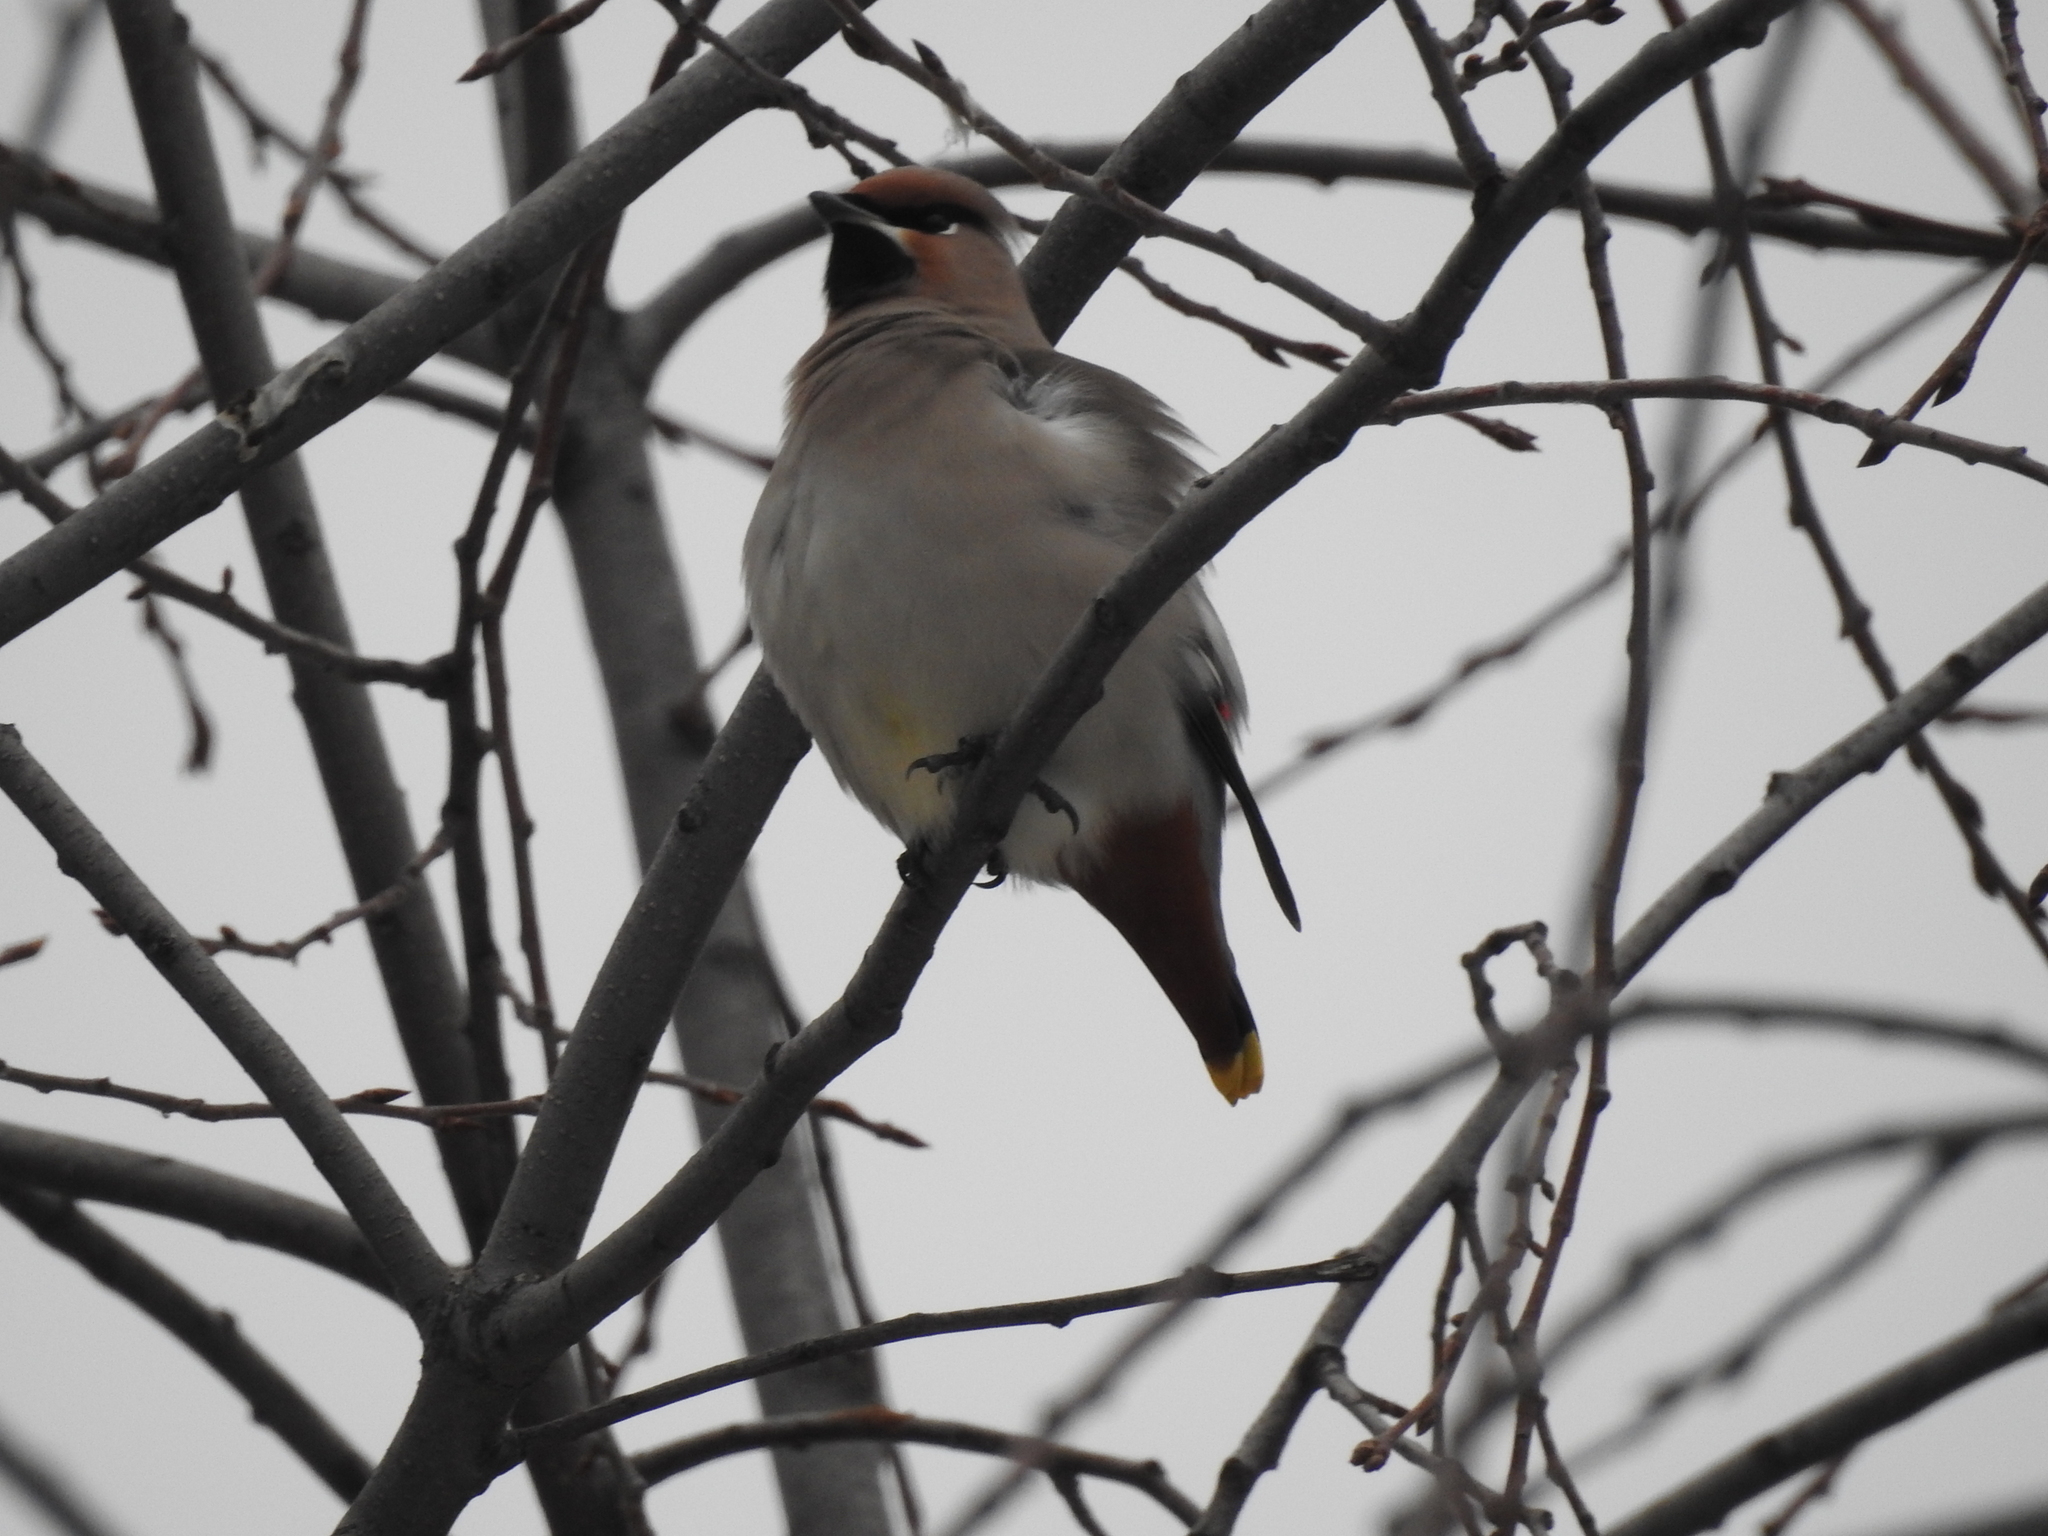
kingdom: Animalia
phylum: Chordata
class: Aves
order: Passeriformes
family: Bombycillidae
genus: Bombycilla
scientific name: Bombycilla garrulus
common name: Bohemian waxwing
